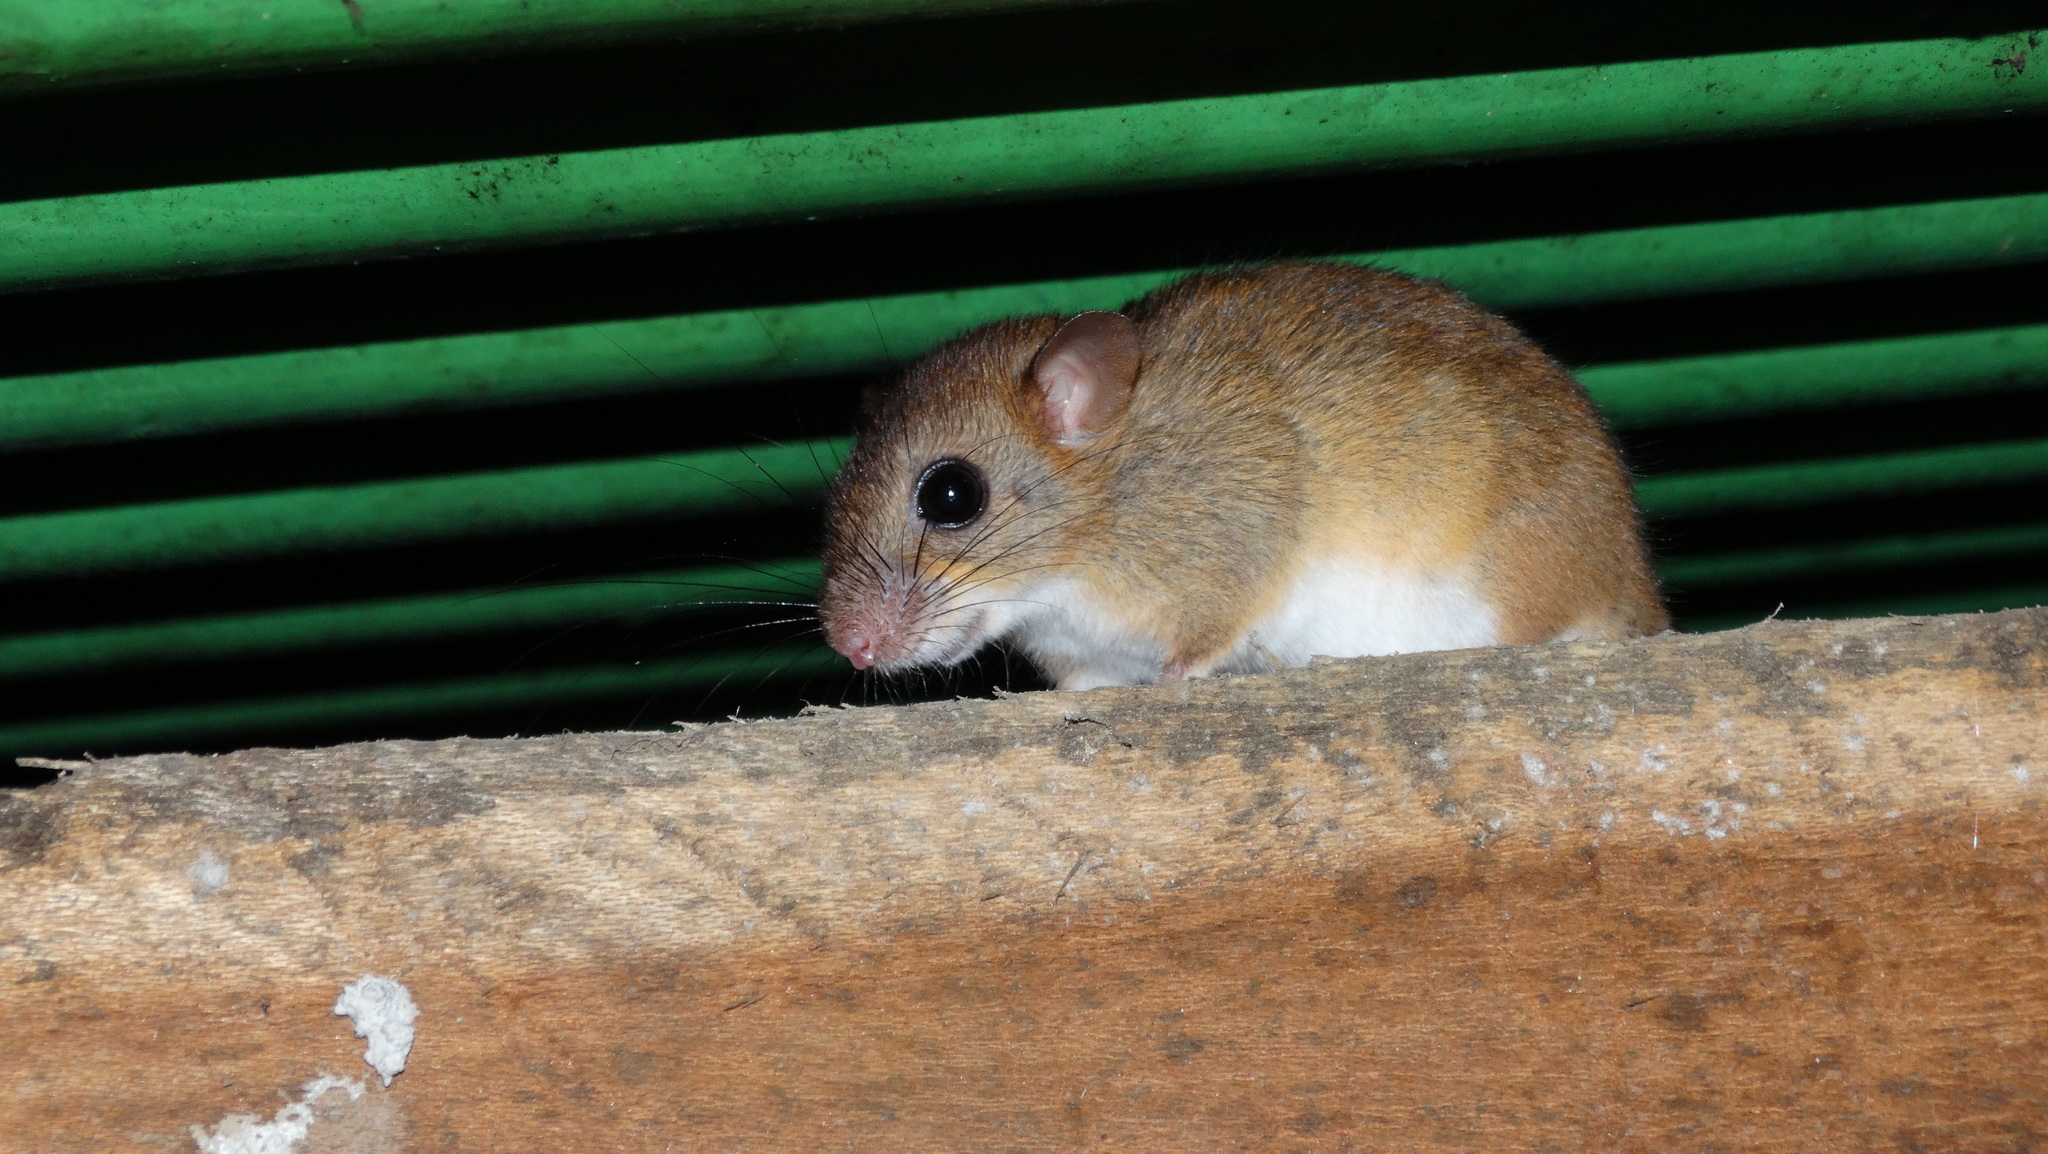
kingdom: Animalia
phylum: Chordata
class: Mammalia
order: Rodentia
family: Cricetidae
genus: Oecomys
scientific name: Oecomys bicolor
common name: White-bellied oecomys
